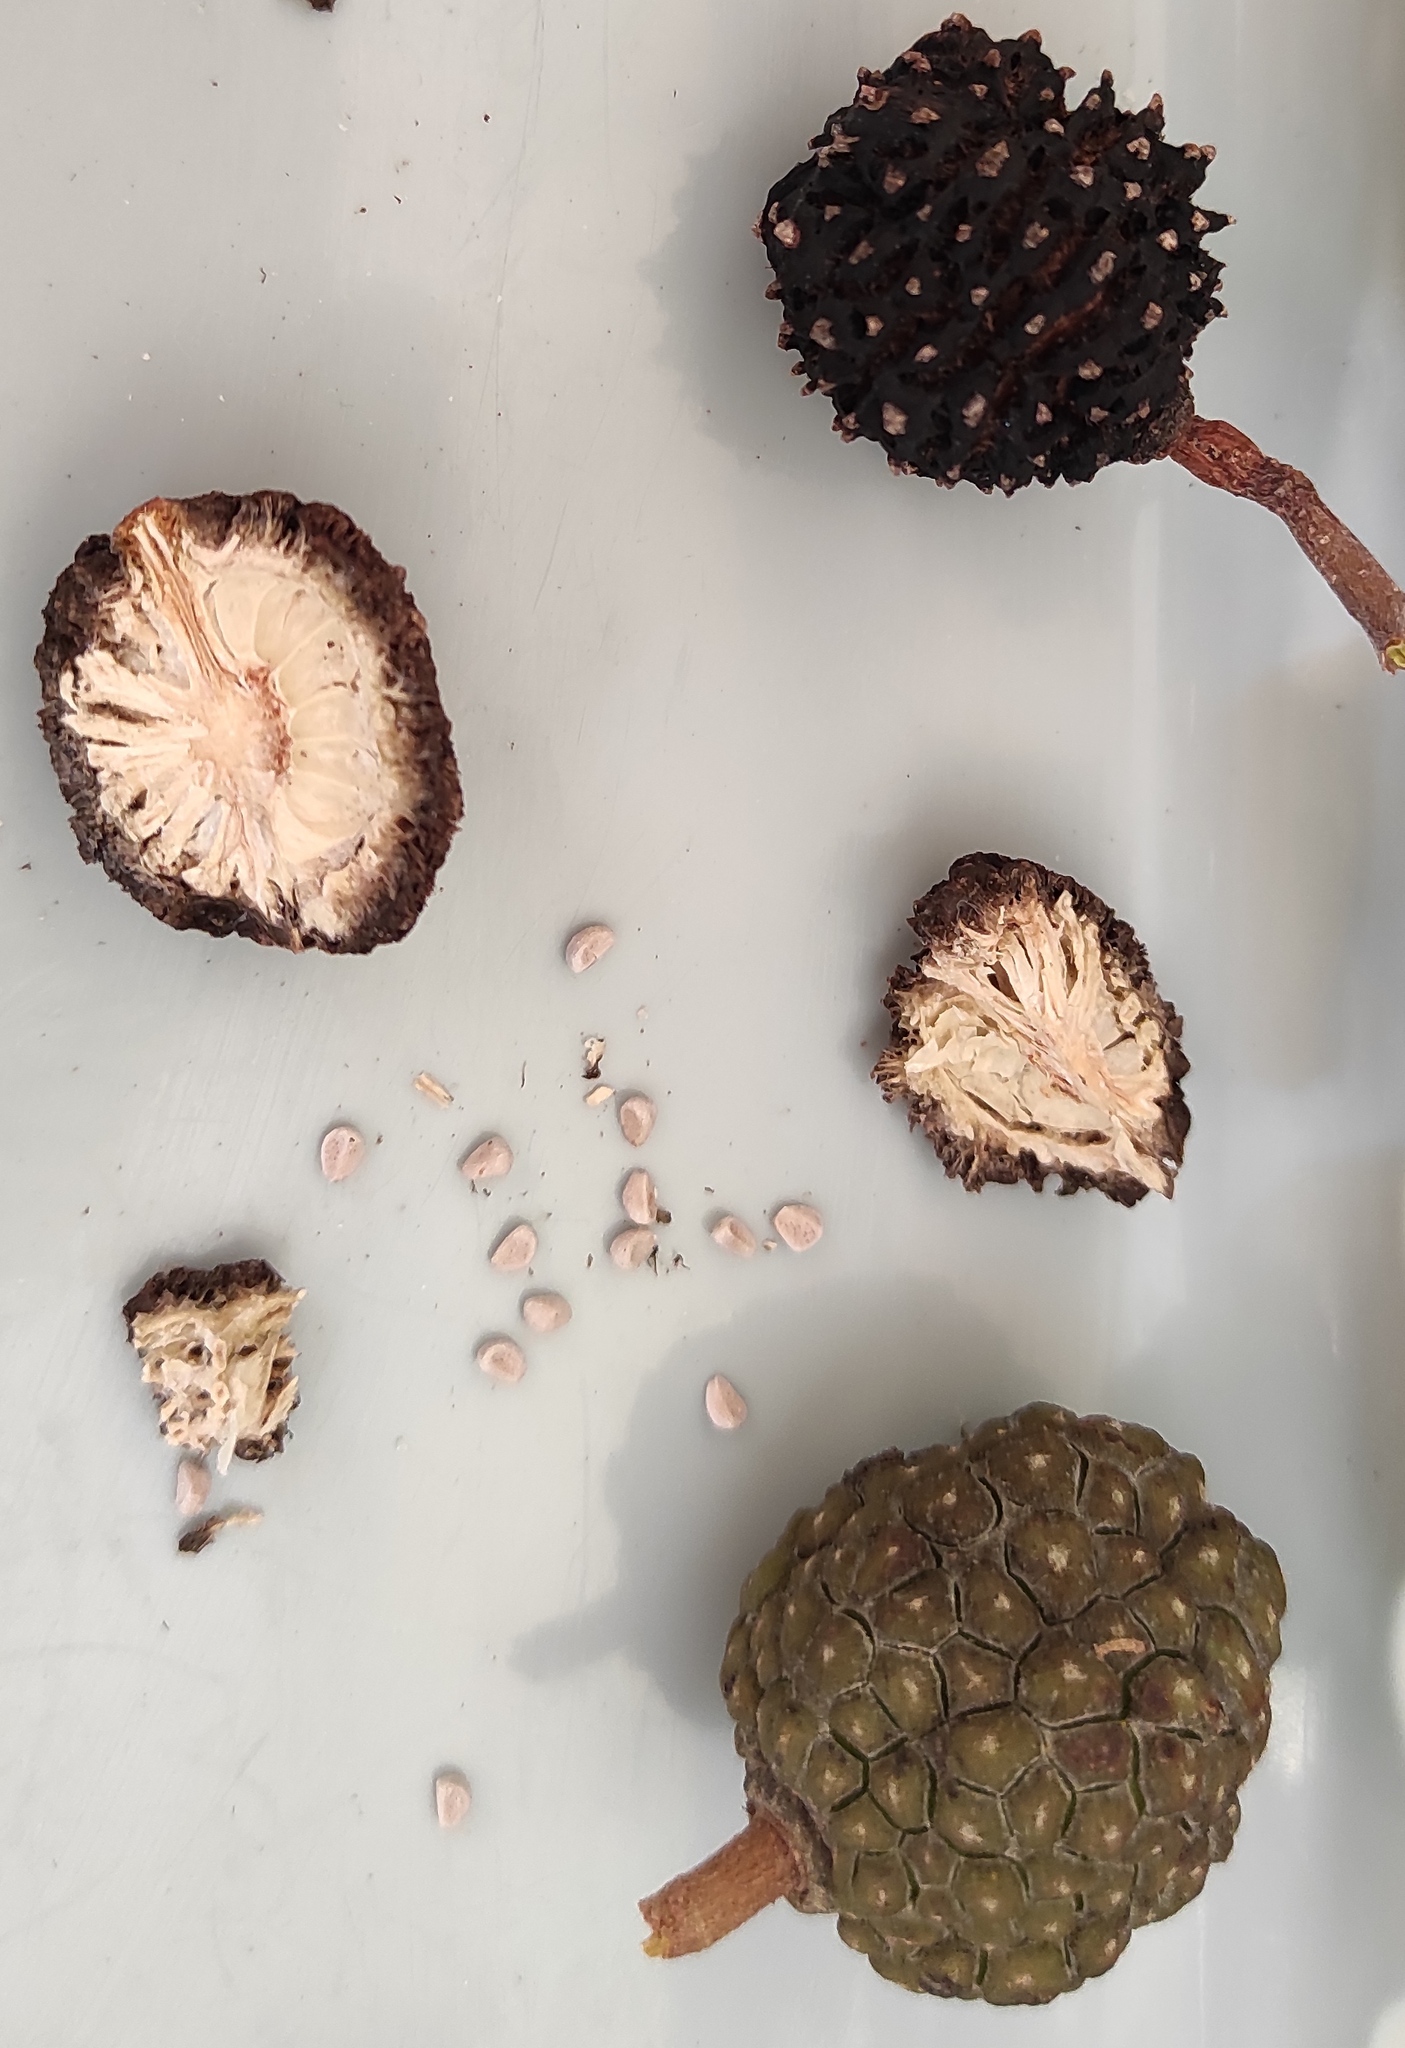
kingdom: Plantae
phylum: Tracheophyta
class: Magnoliopsida
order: Malvales
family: Malvaceae
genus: Guazuma
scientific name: Guazuma ulmifolia
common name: Bastard-cedar
